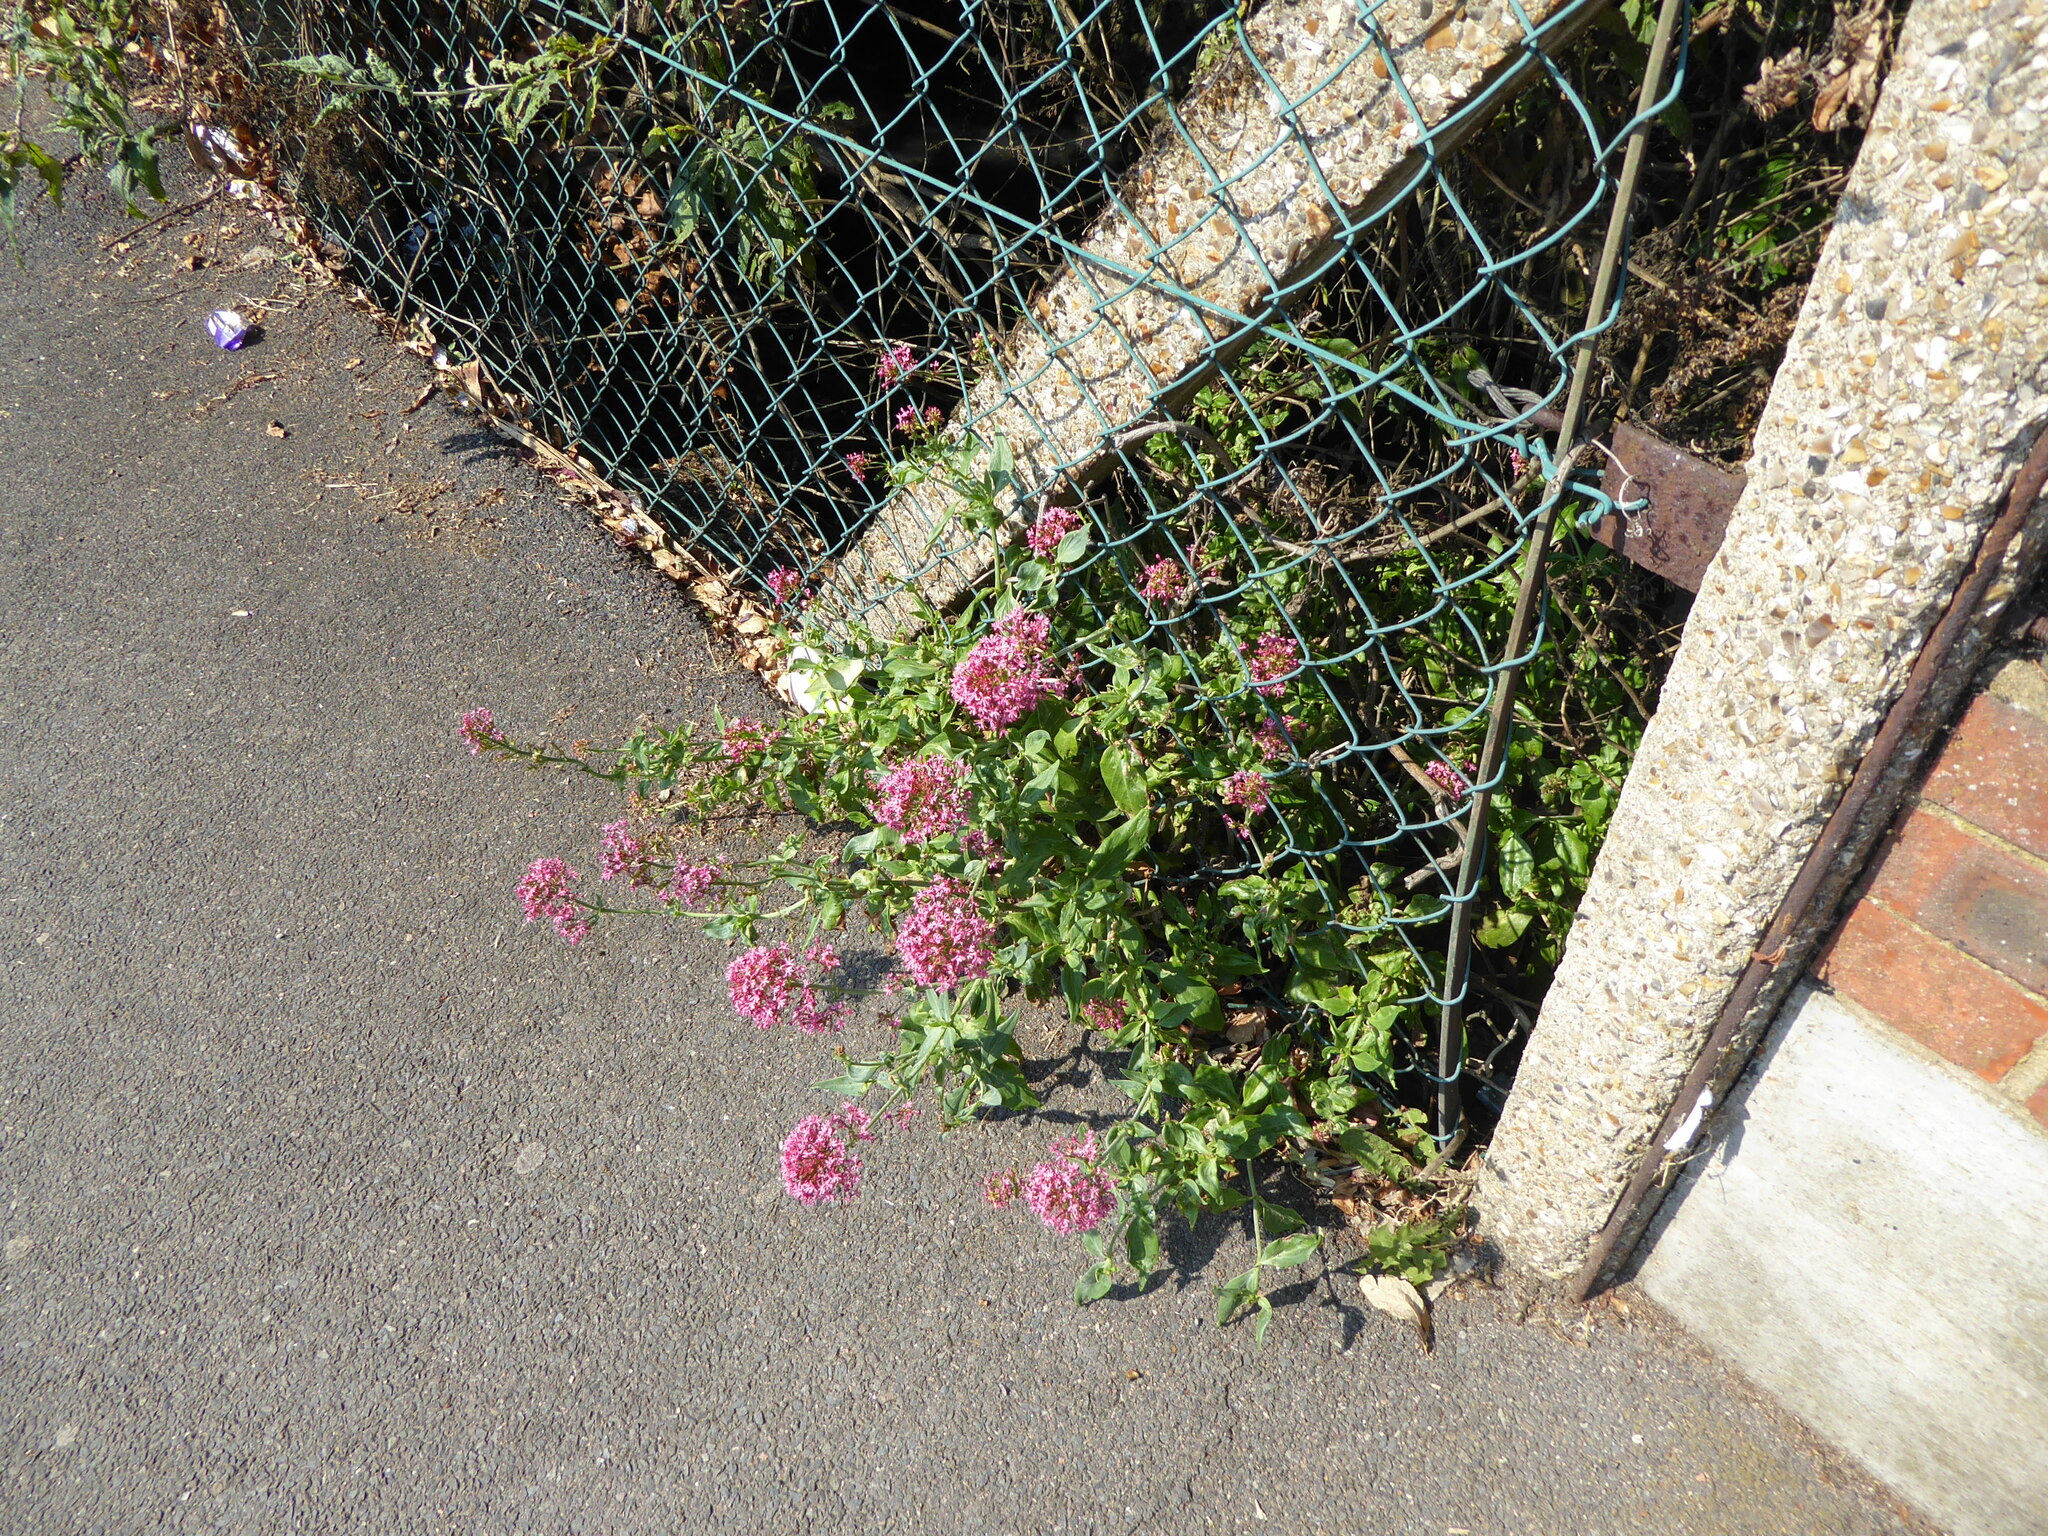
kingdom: Plantae
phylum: Tracheophyta
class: Magnoliopsida
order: Dipsacales
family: Caprifoliaceae
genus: Centranthus
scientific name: Centranthus ruber
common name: Red valerian
